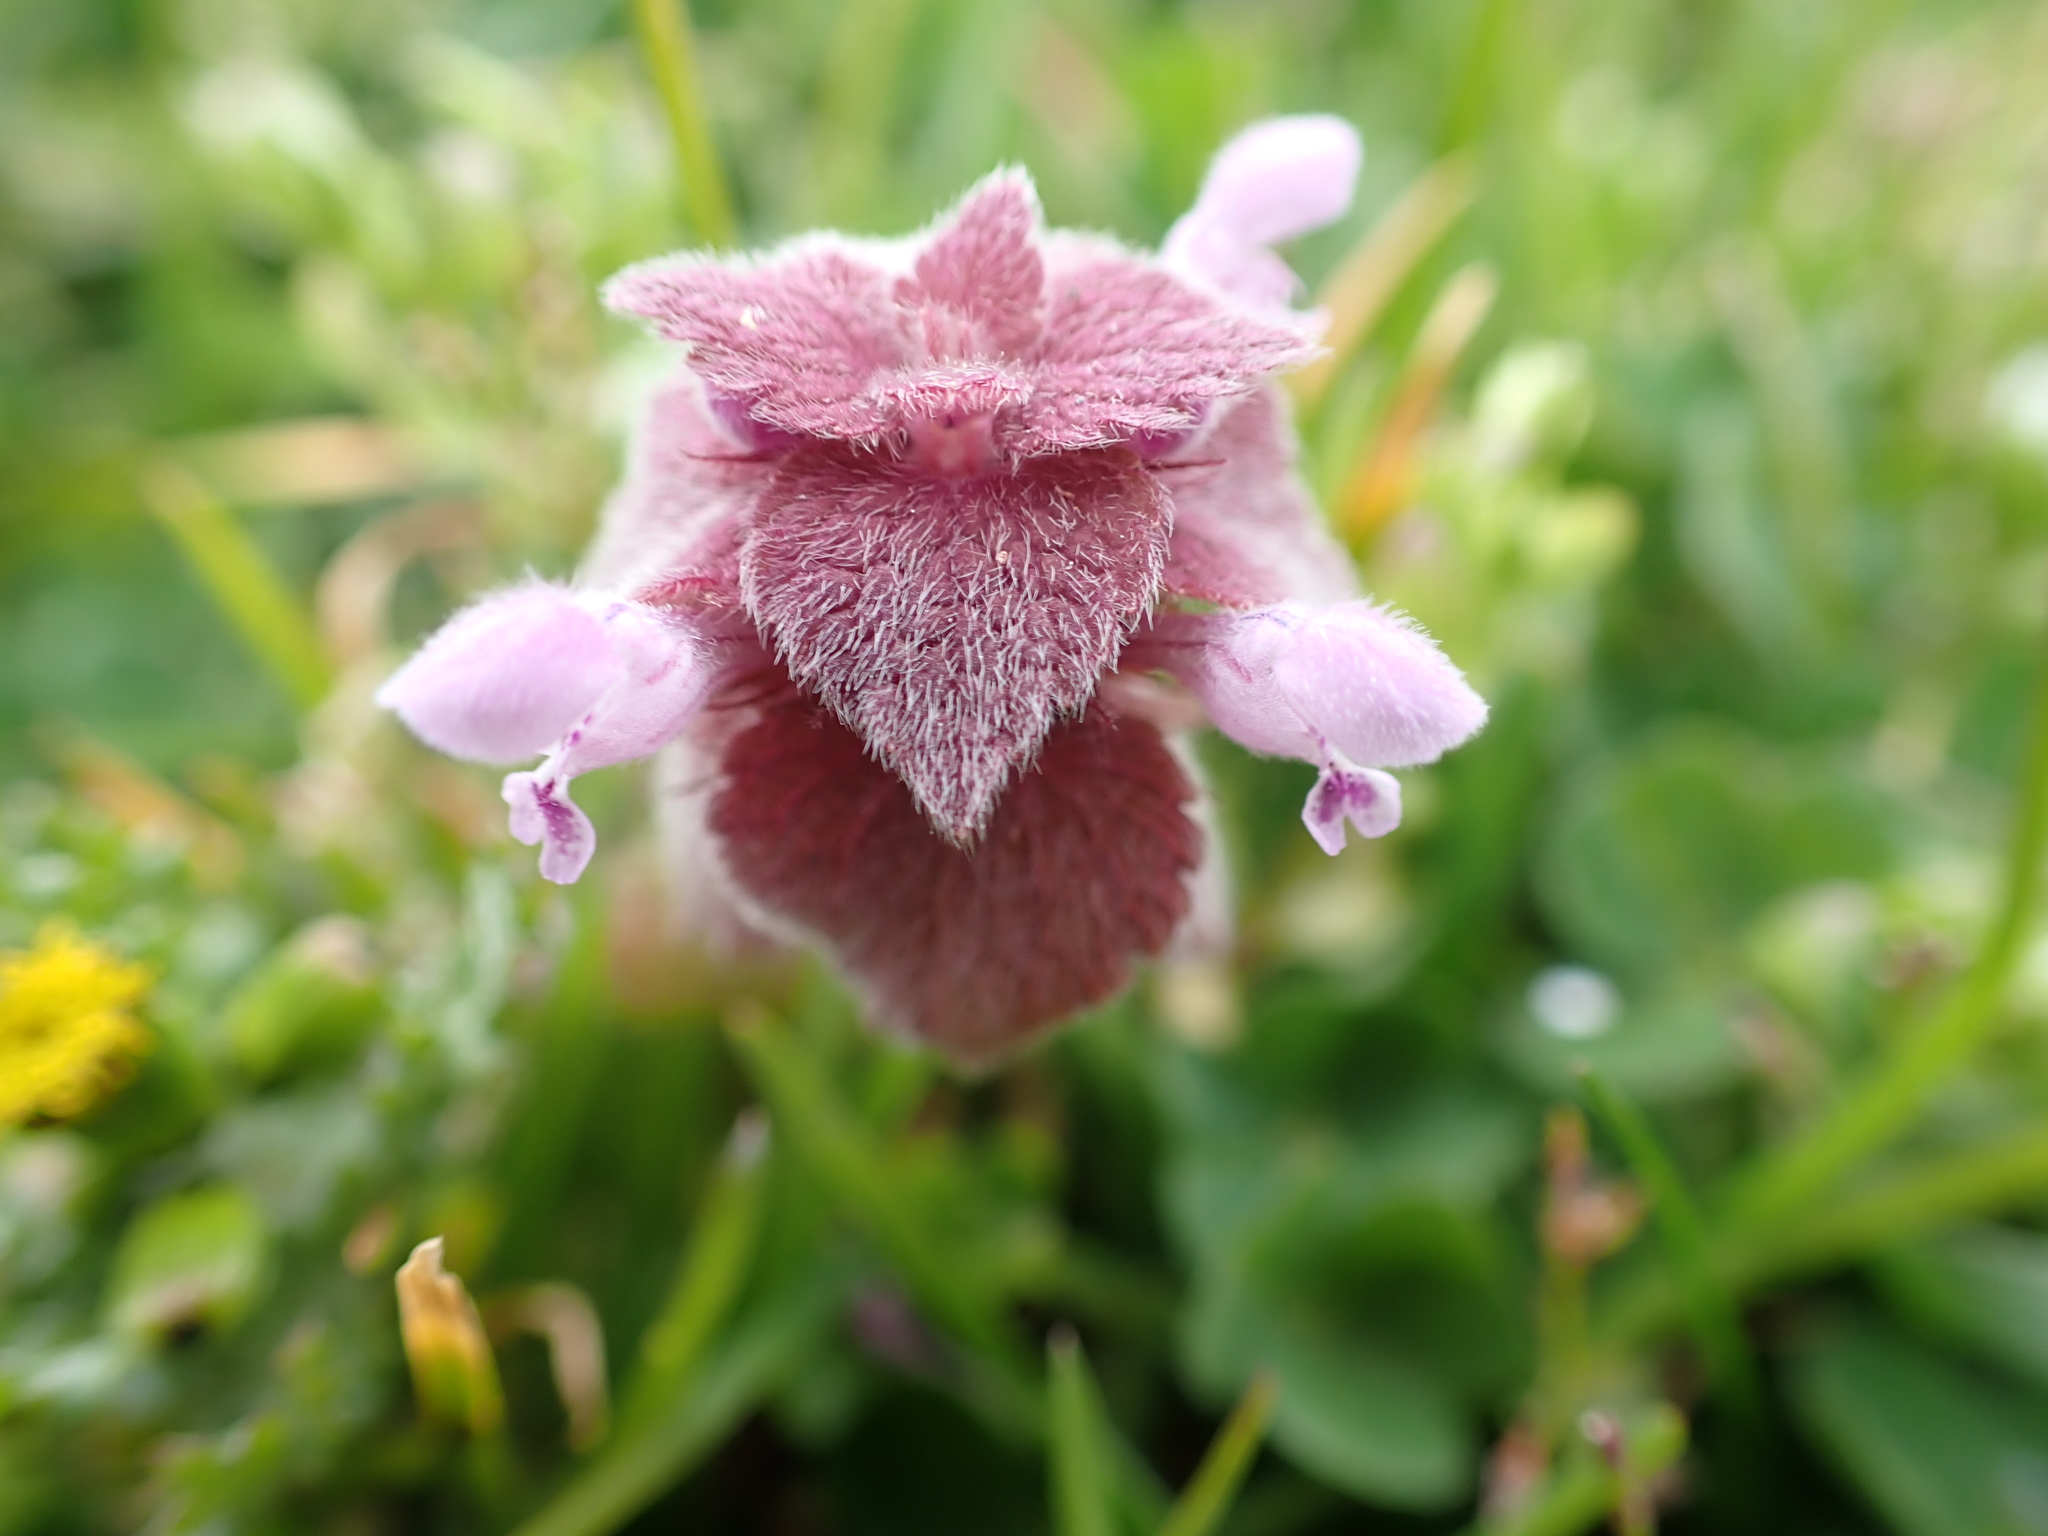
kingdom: Plantae
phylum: Tracheophyta
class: Magnoliopsida
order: Lamiales
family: Lamiaceae
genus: Lamium
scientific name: Lamium purpureum
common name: Red dead-nettle
